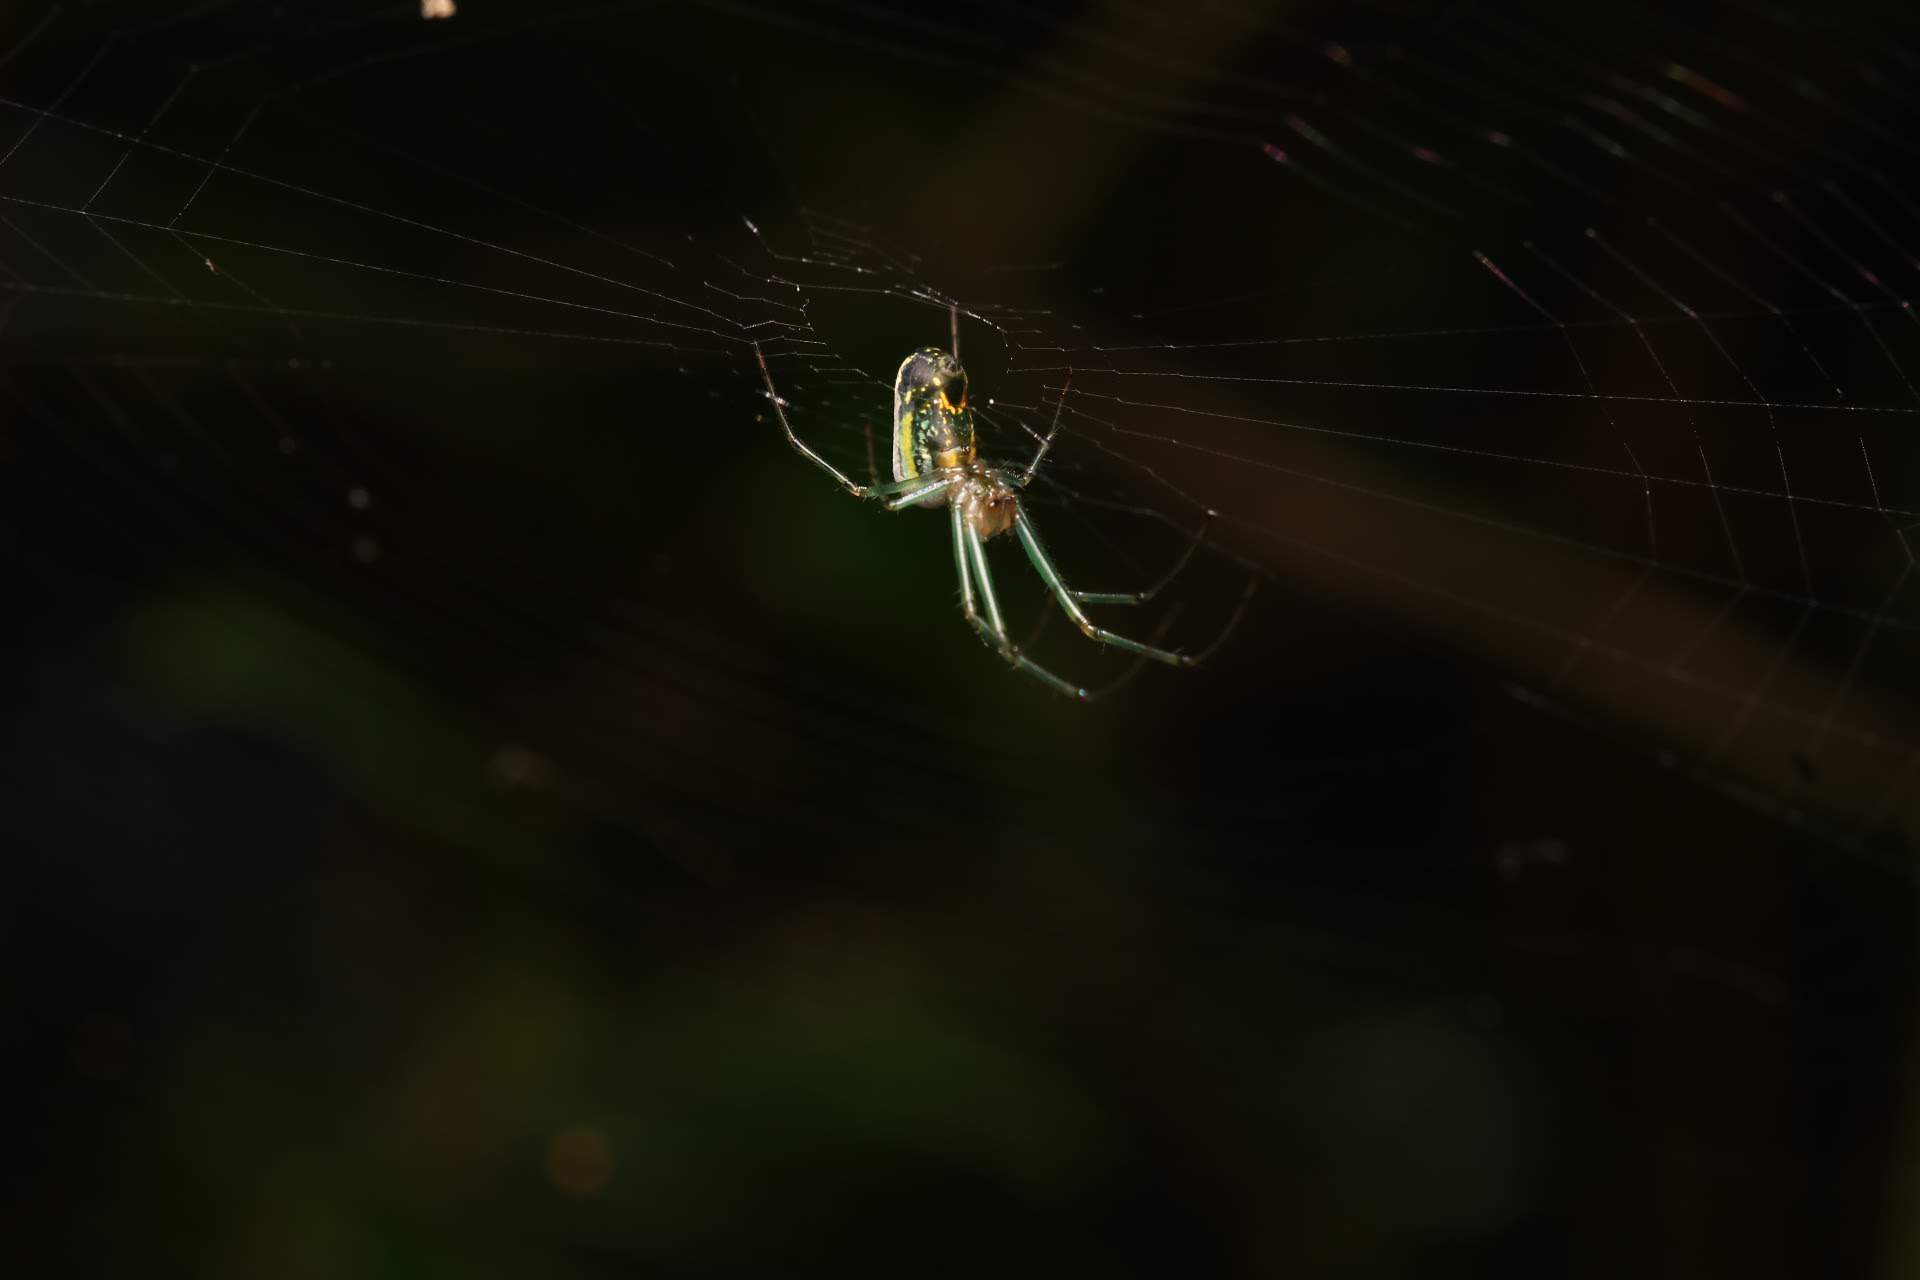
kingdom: Animalia
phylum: Arthropoda
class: Arachnida
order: Araneae
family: Tetragnathidae
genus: Leucauge
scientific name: Leucauge venusta
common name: Longjawed orb weavers
